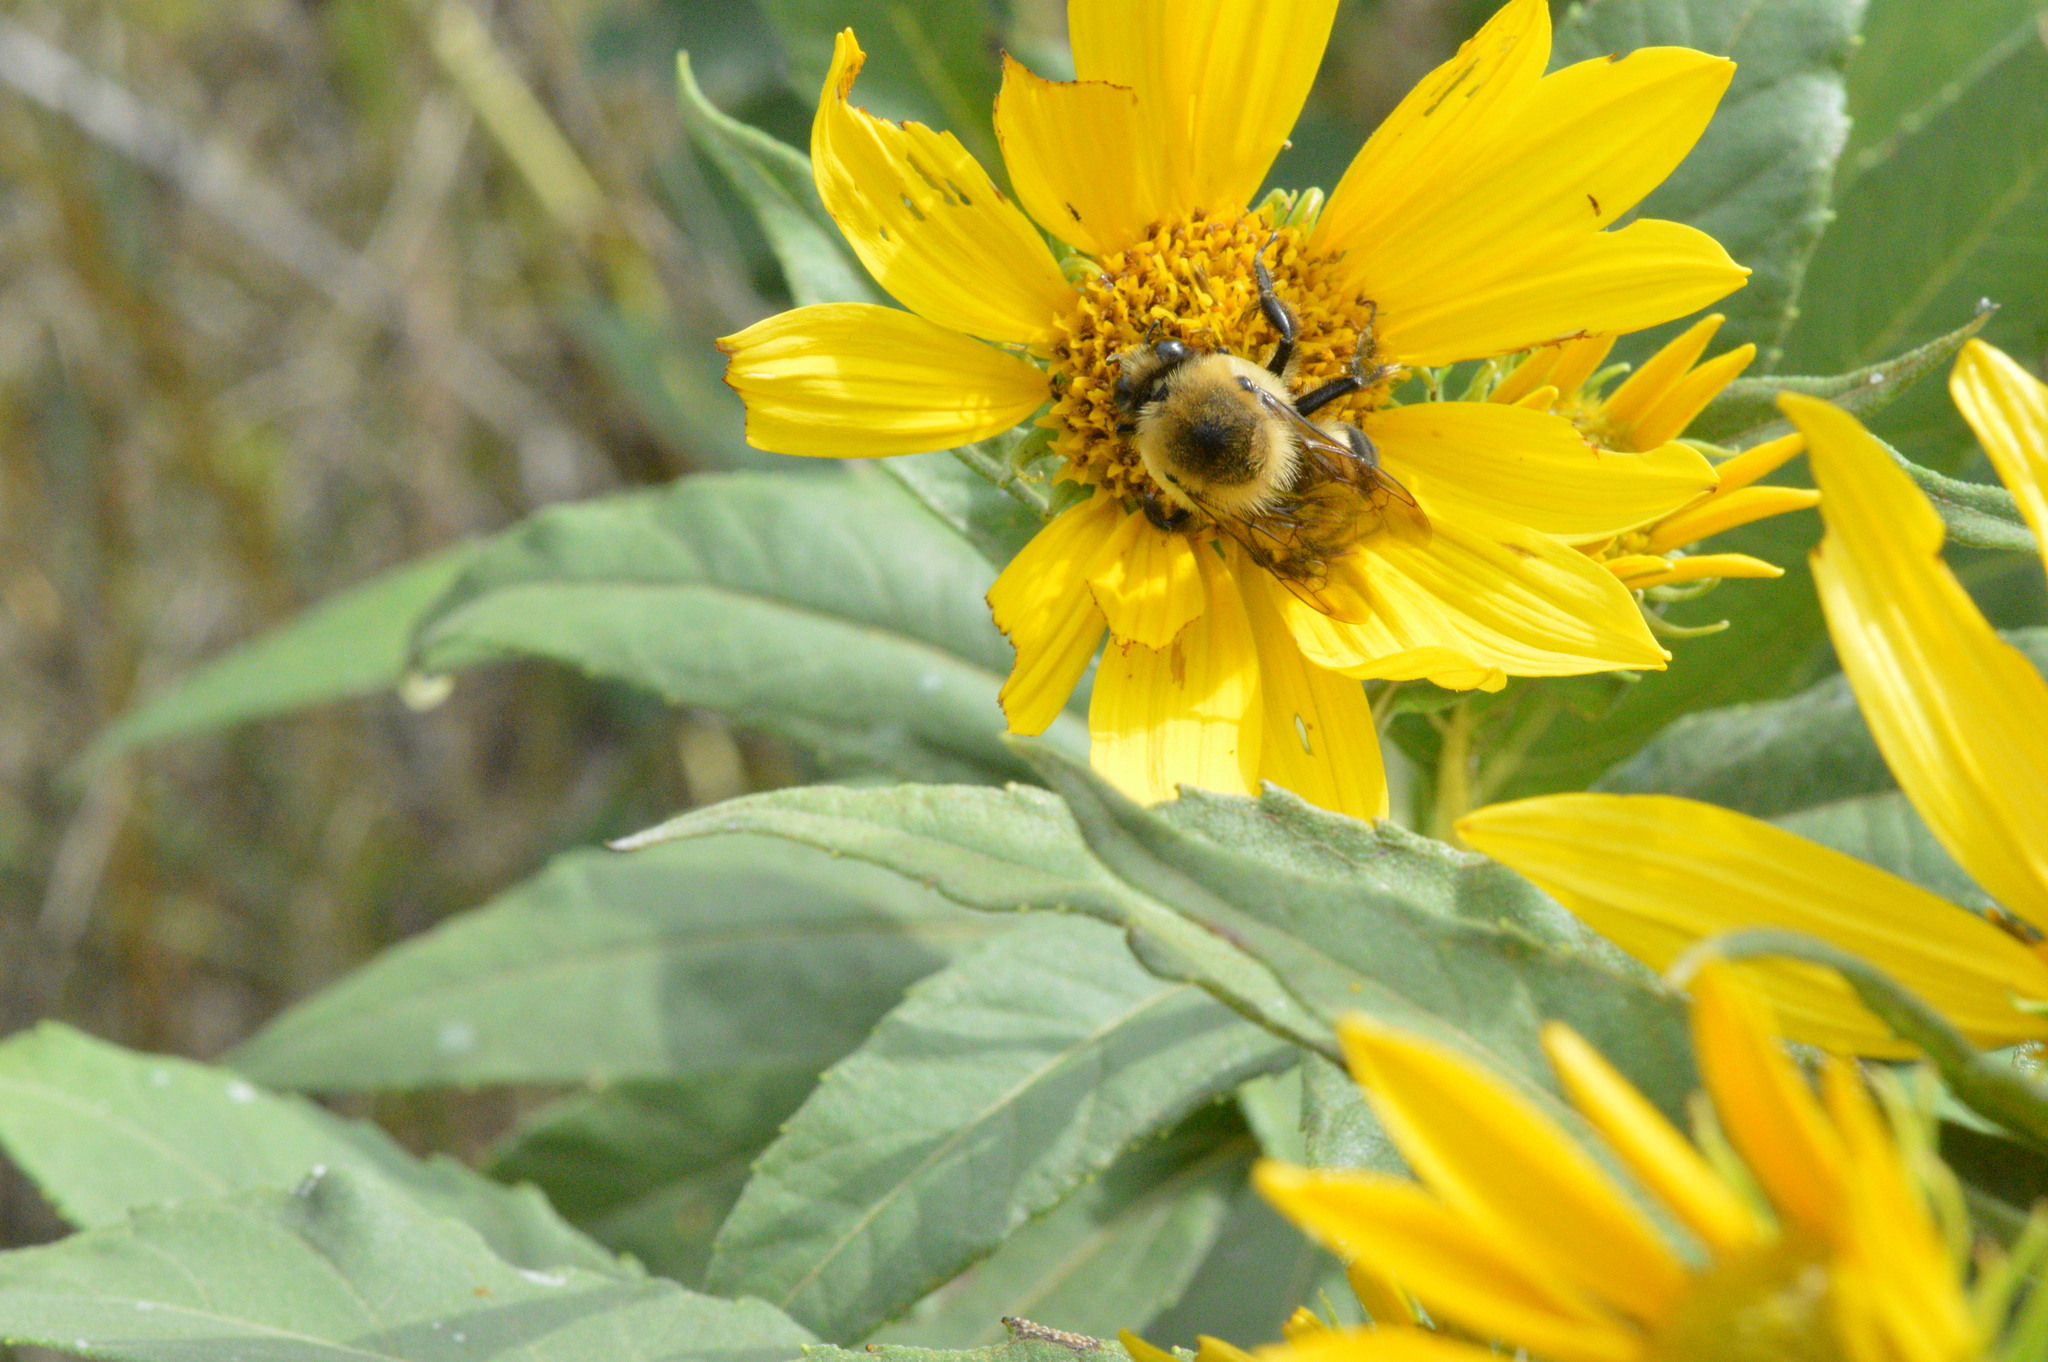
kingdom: Animalia
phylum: Arthropoda
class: Insecta
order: Hymenoptera
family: Apidae
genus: Bombus
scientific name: Bombus griseocollis
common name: Brown-belted bumble bee
